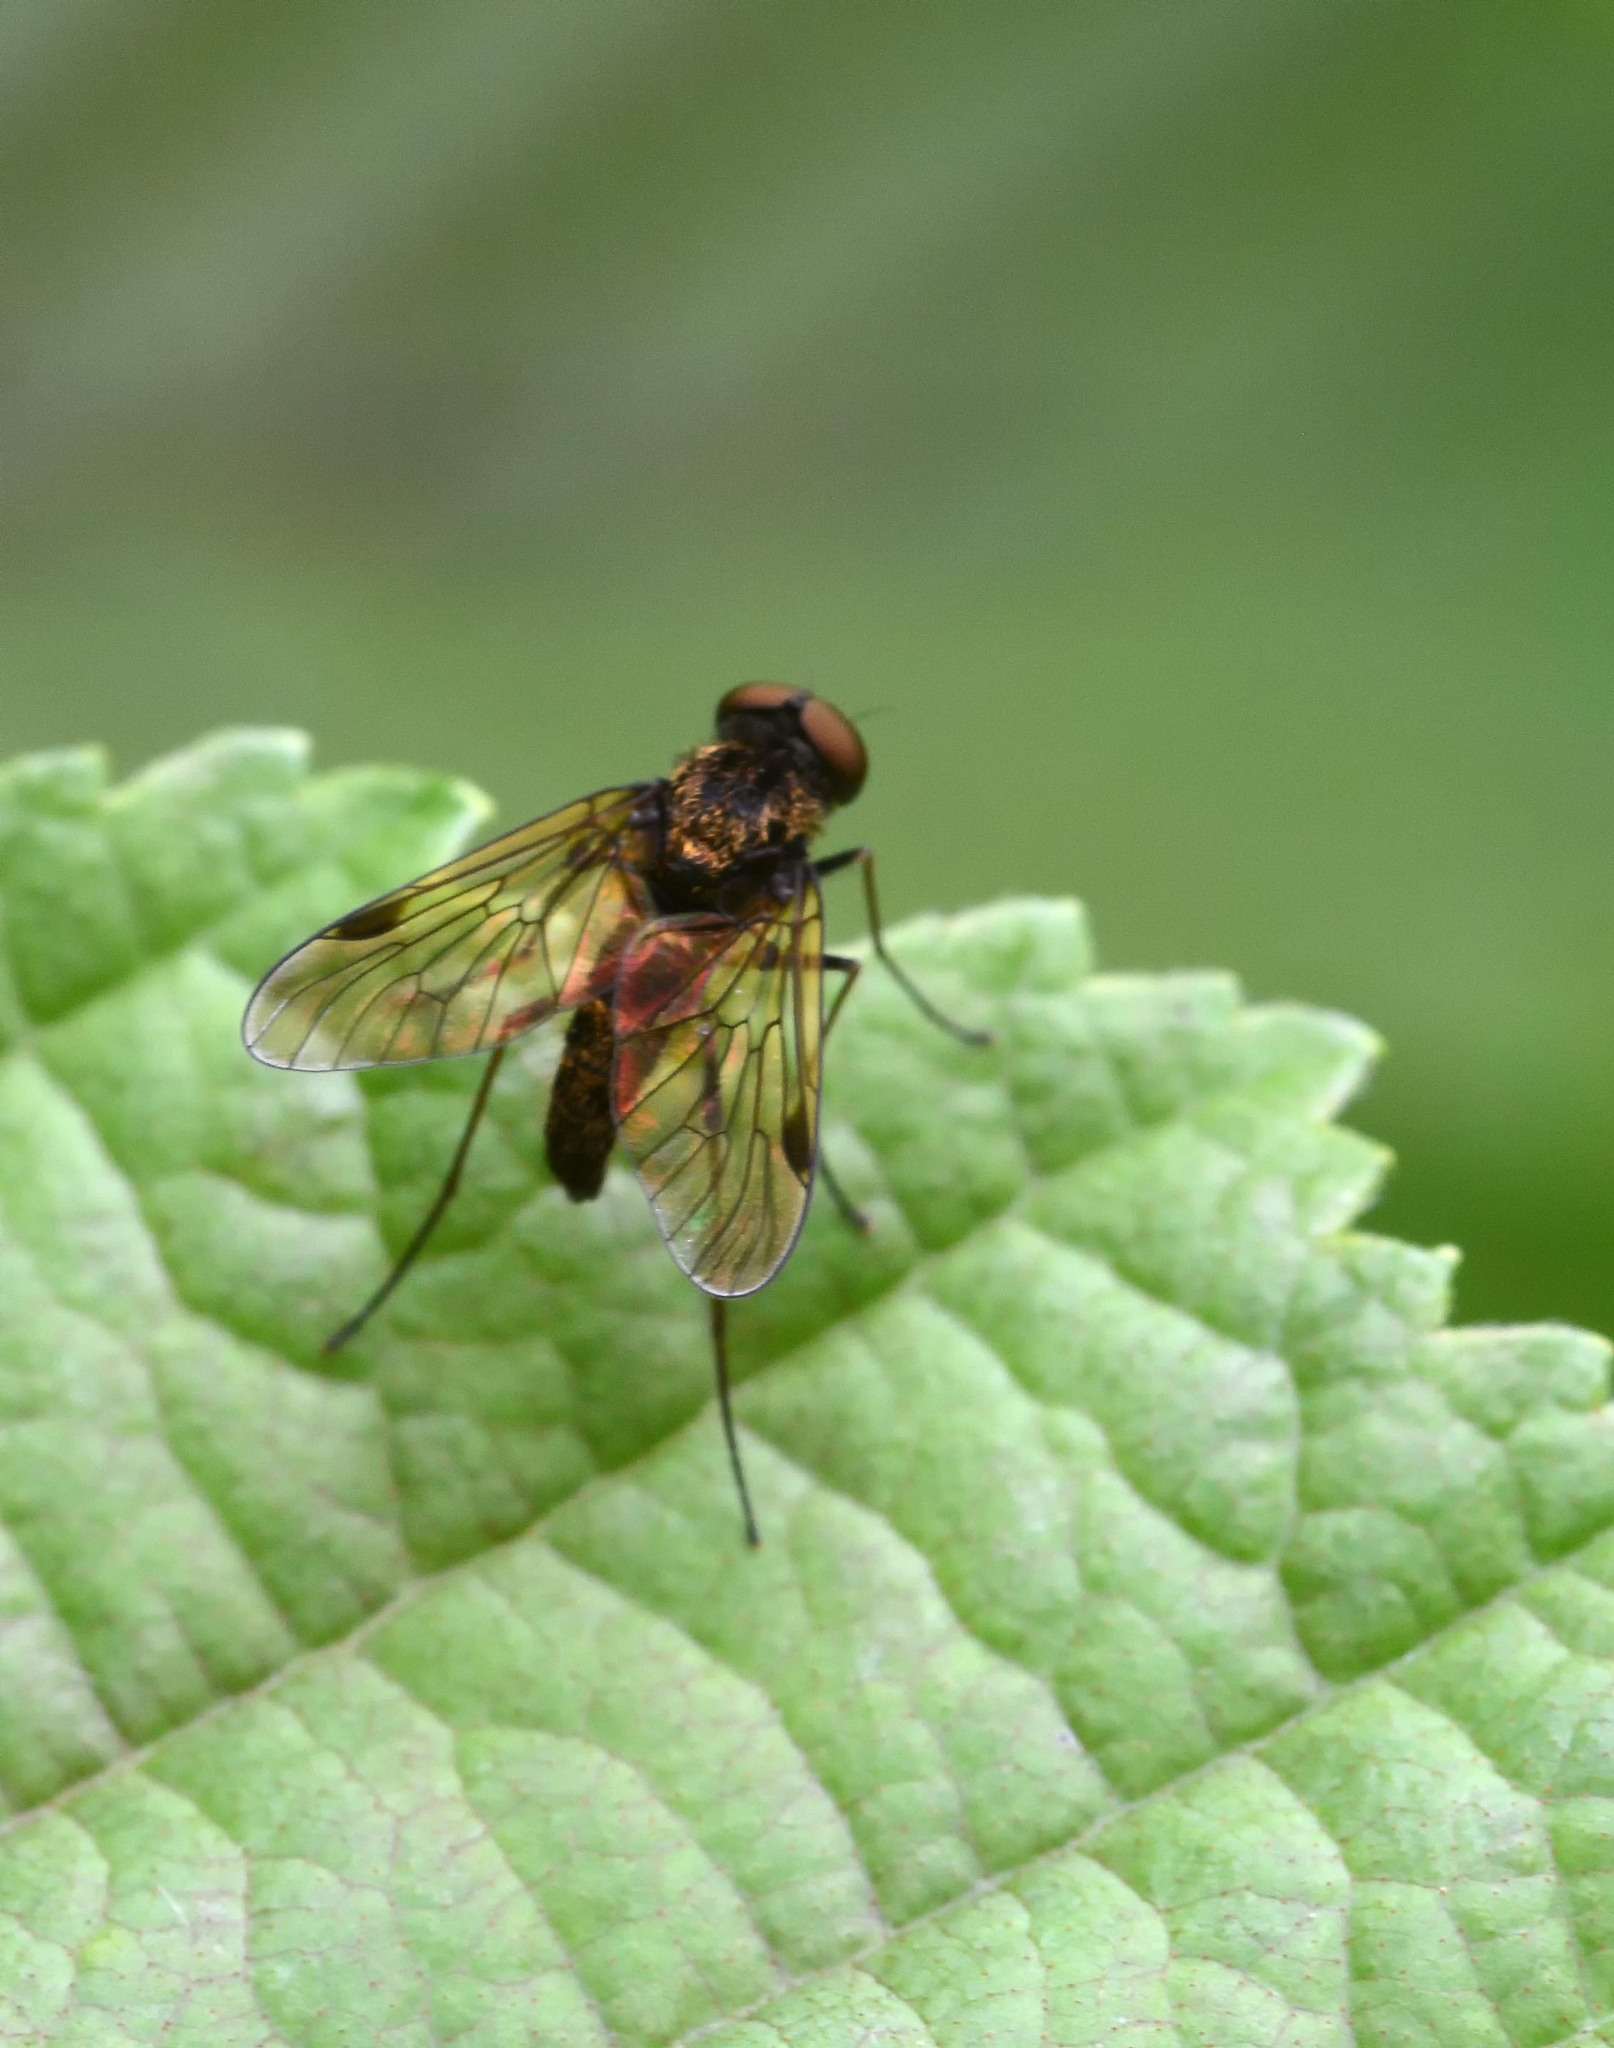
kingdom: Animalia
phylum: Arthropoda
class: Insecta
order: Diptera
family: Rhagionidae
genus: Chrysopilus
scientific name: Chrysopilus cristatus
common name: Black snipefly
